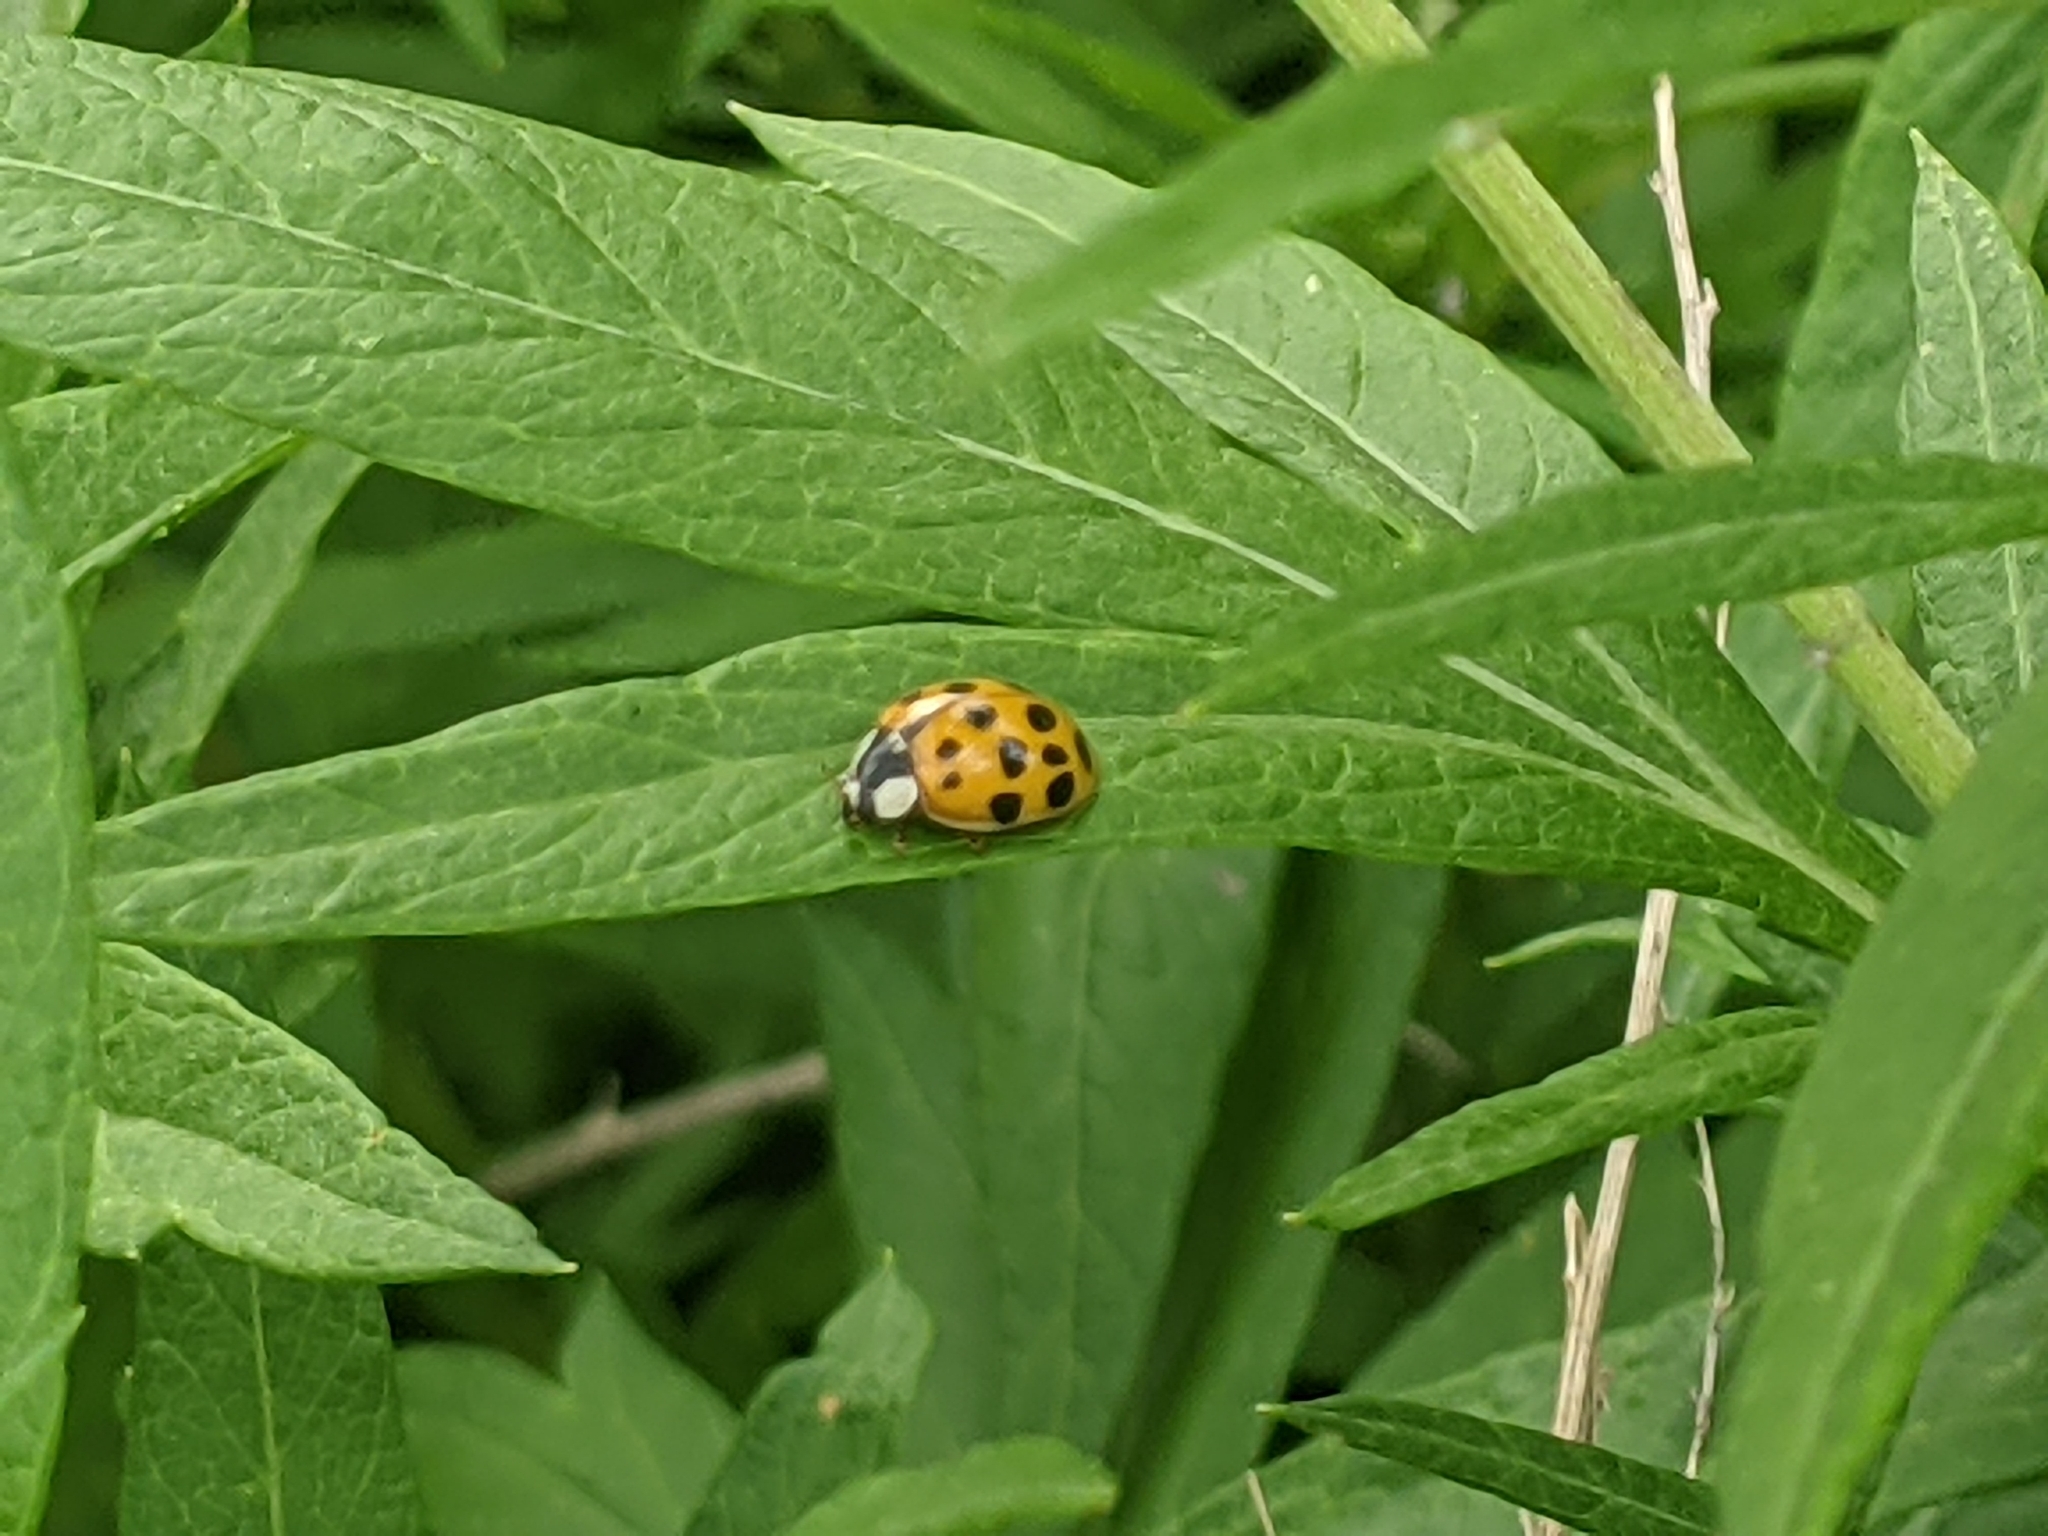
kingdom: Animalia
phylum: Arthropoda
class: Insecta
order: Coleoptera
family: Coccinellidae
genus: Harmonia
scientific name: Harmonia axyridis
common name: Harlequin ladybird
